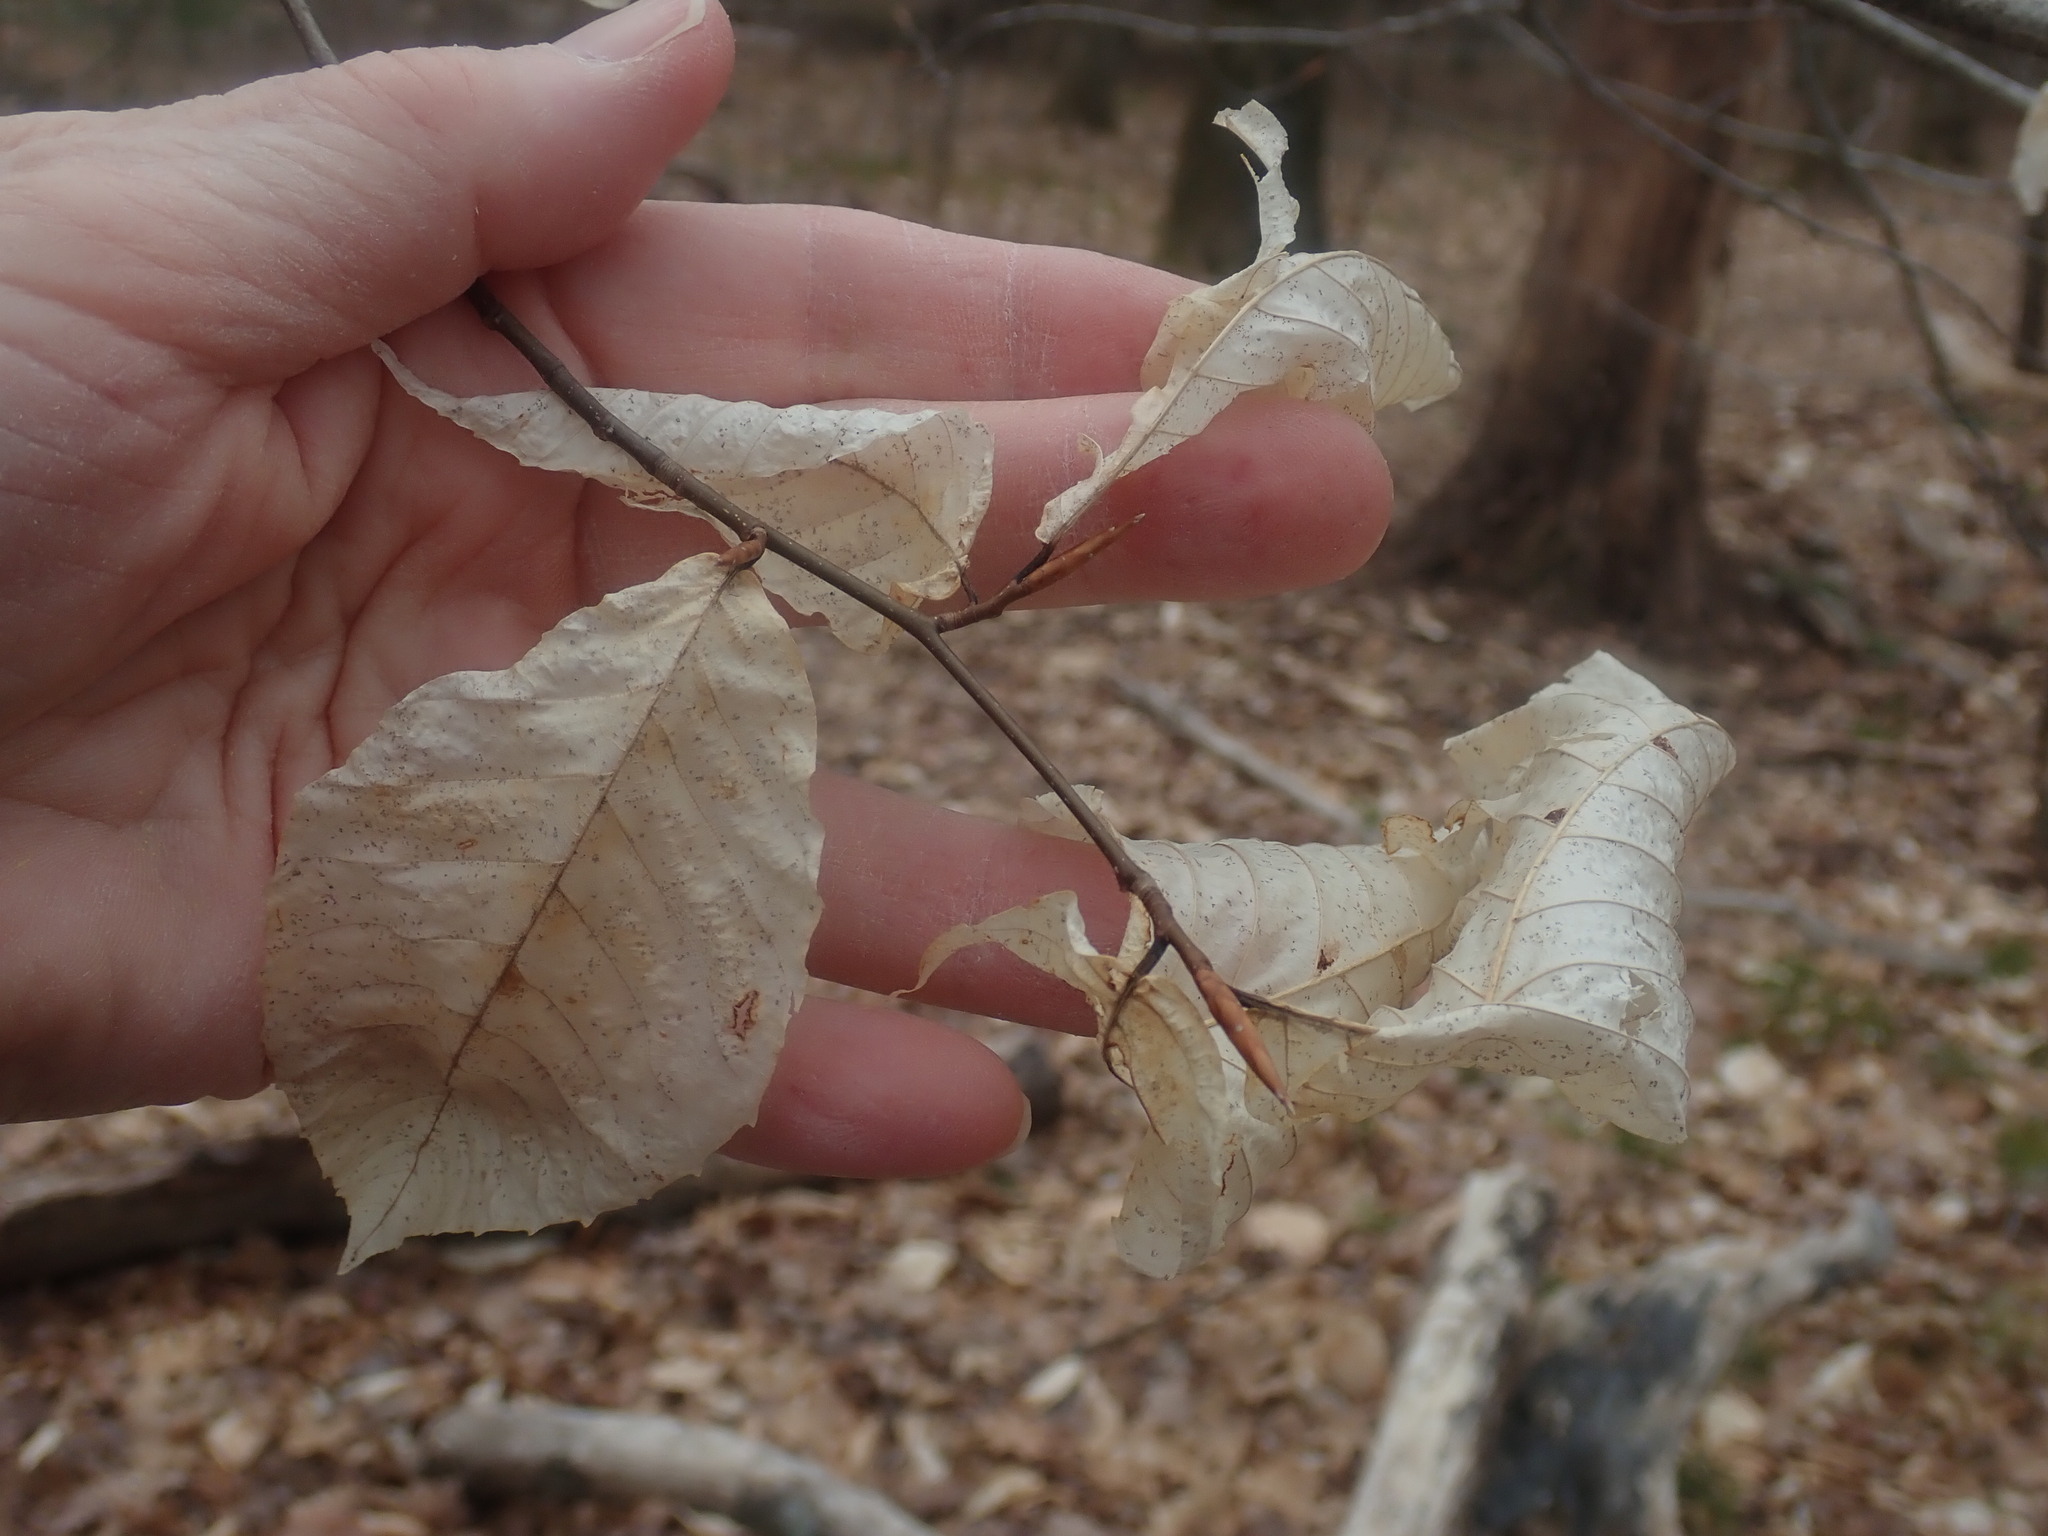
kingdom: Plantae
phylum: Tracheophyta
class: Magnoliopsida
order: Fagales
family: Fagaceae
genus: Fagus
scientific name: Fagus grandifolia
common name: American beech
